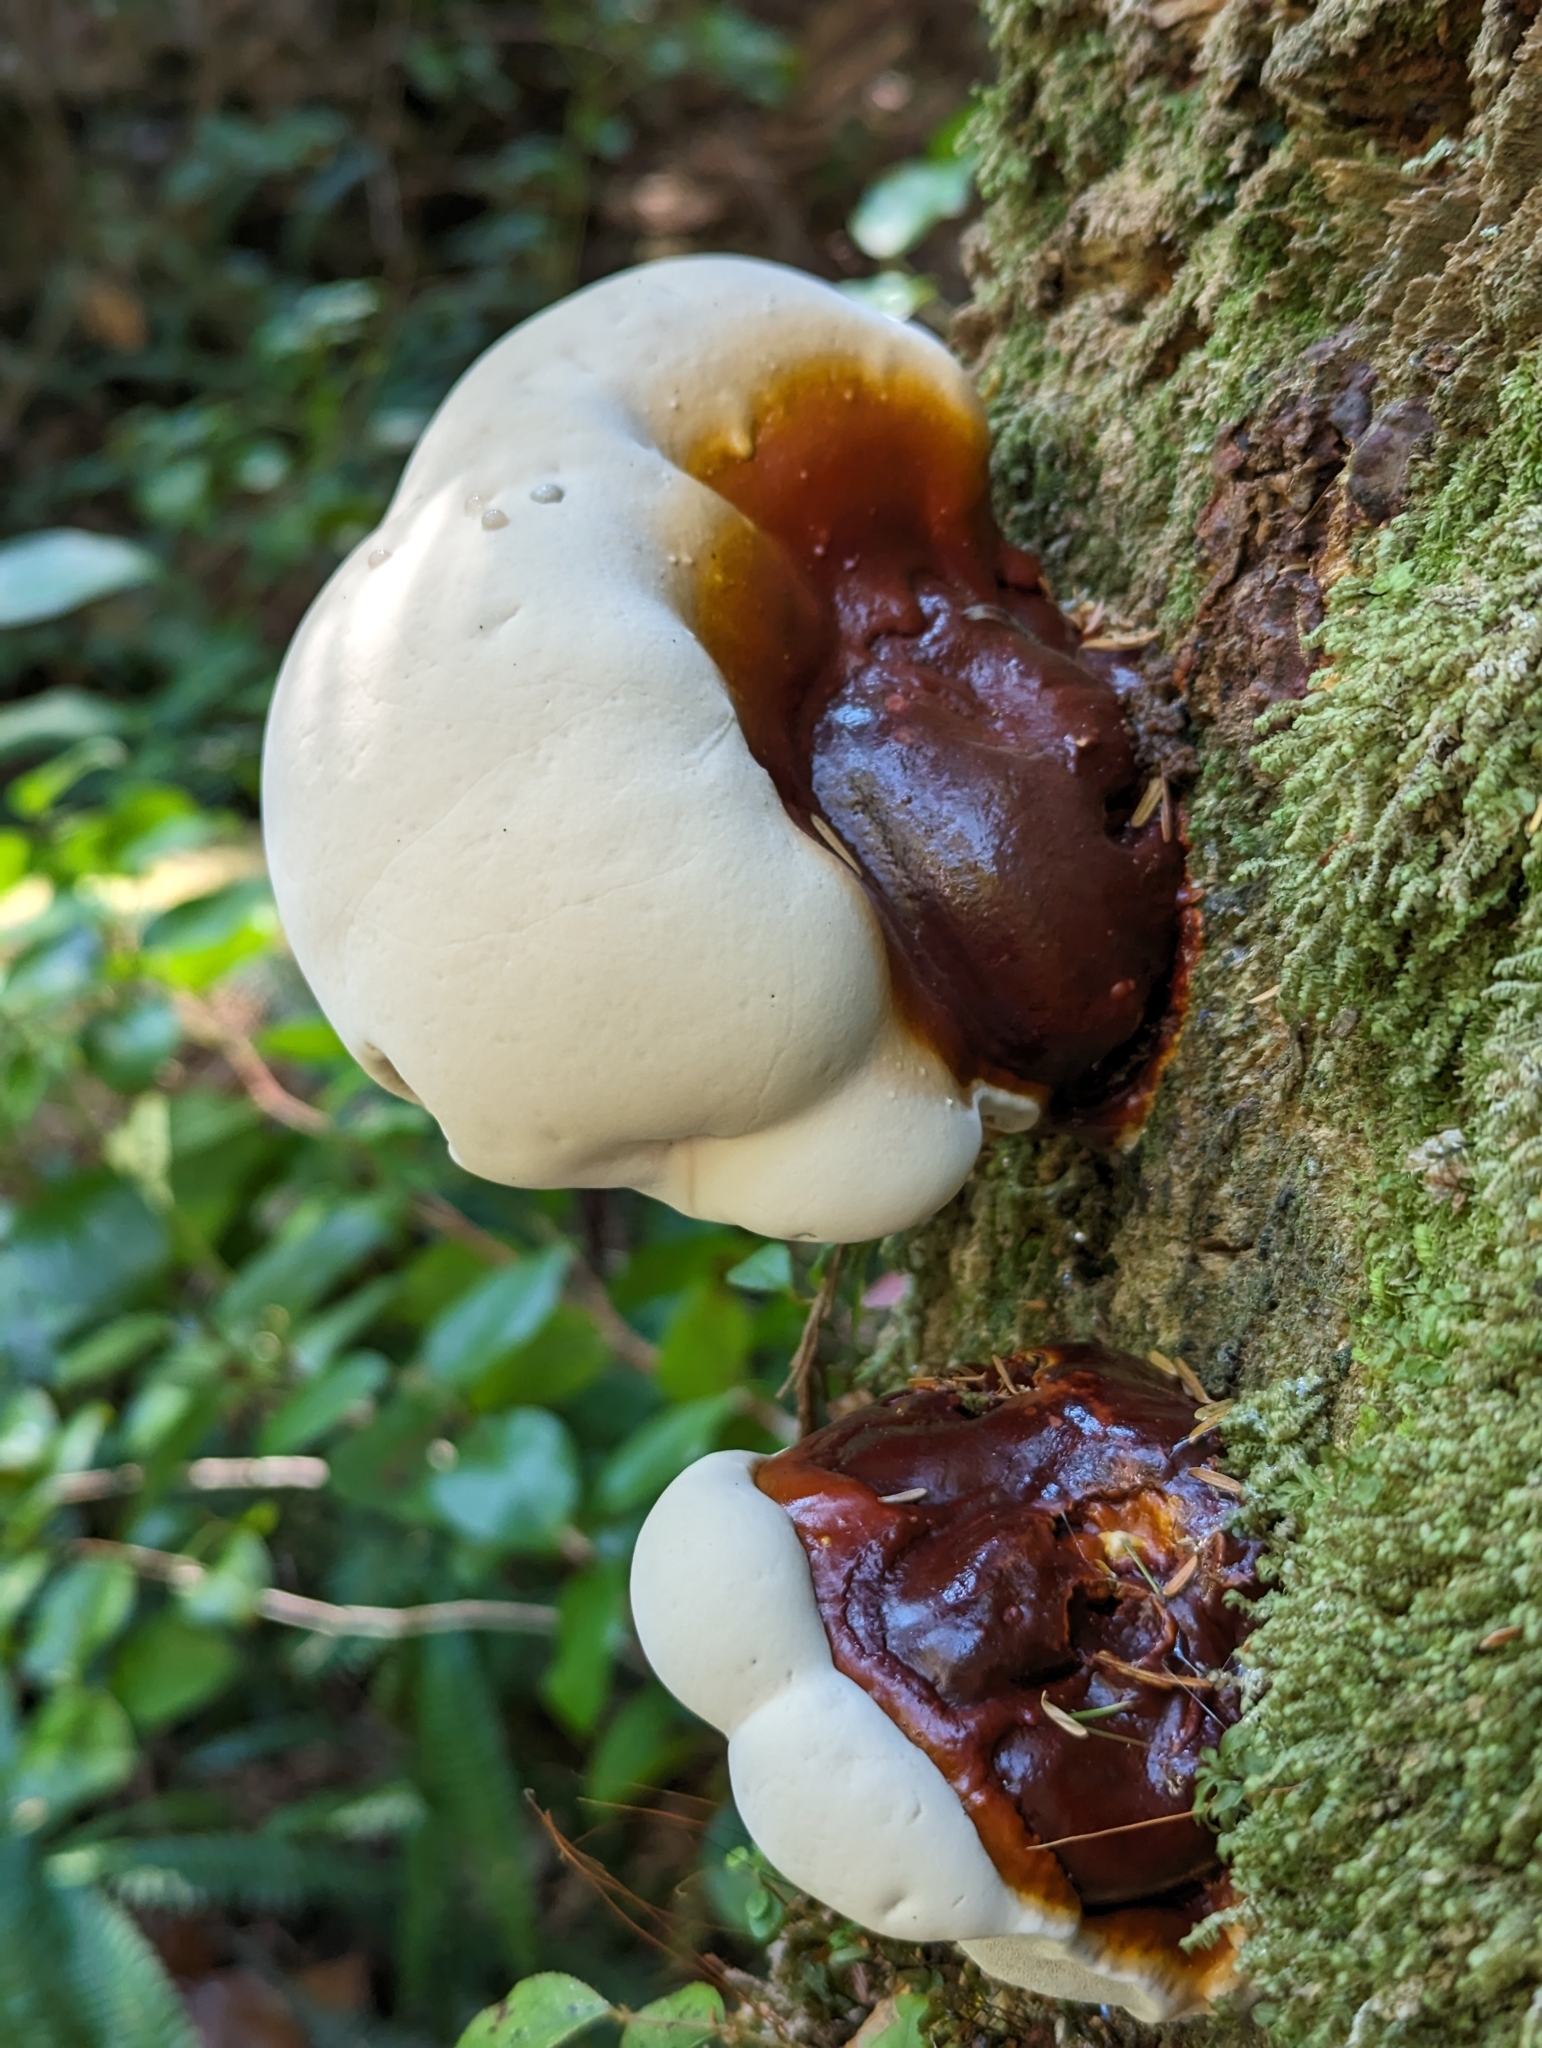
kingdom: Fungi
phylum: Basidiomycota
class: Agaricomycetes
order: Polyporales
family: Polyporaceae
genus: Ganoderma
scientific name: Ganoderma oregonense
